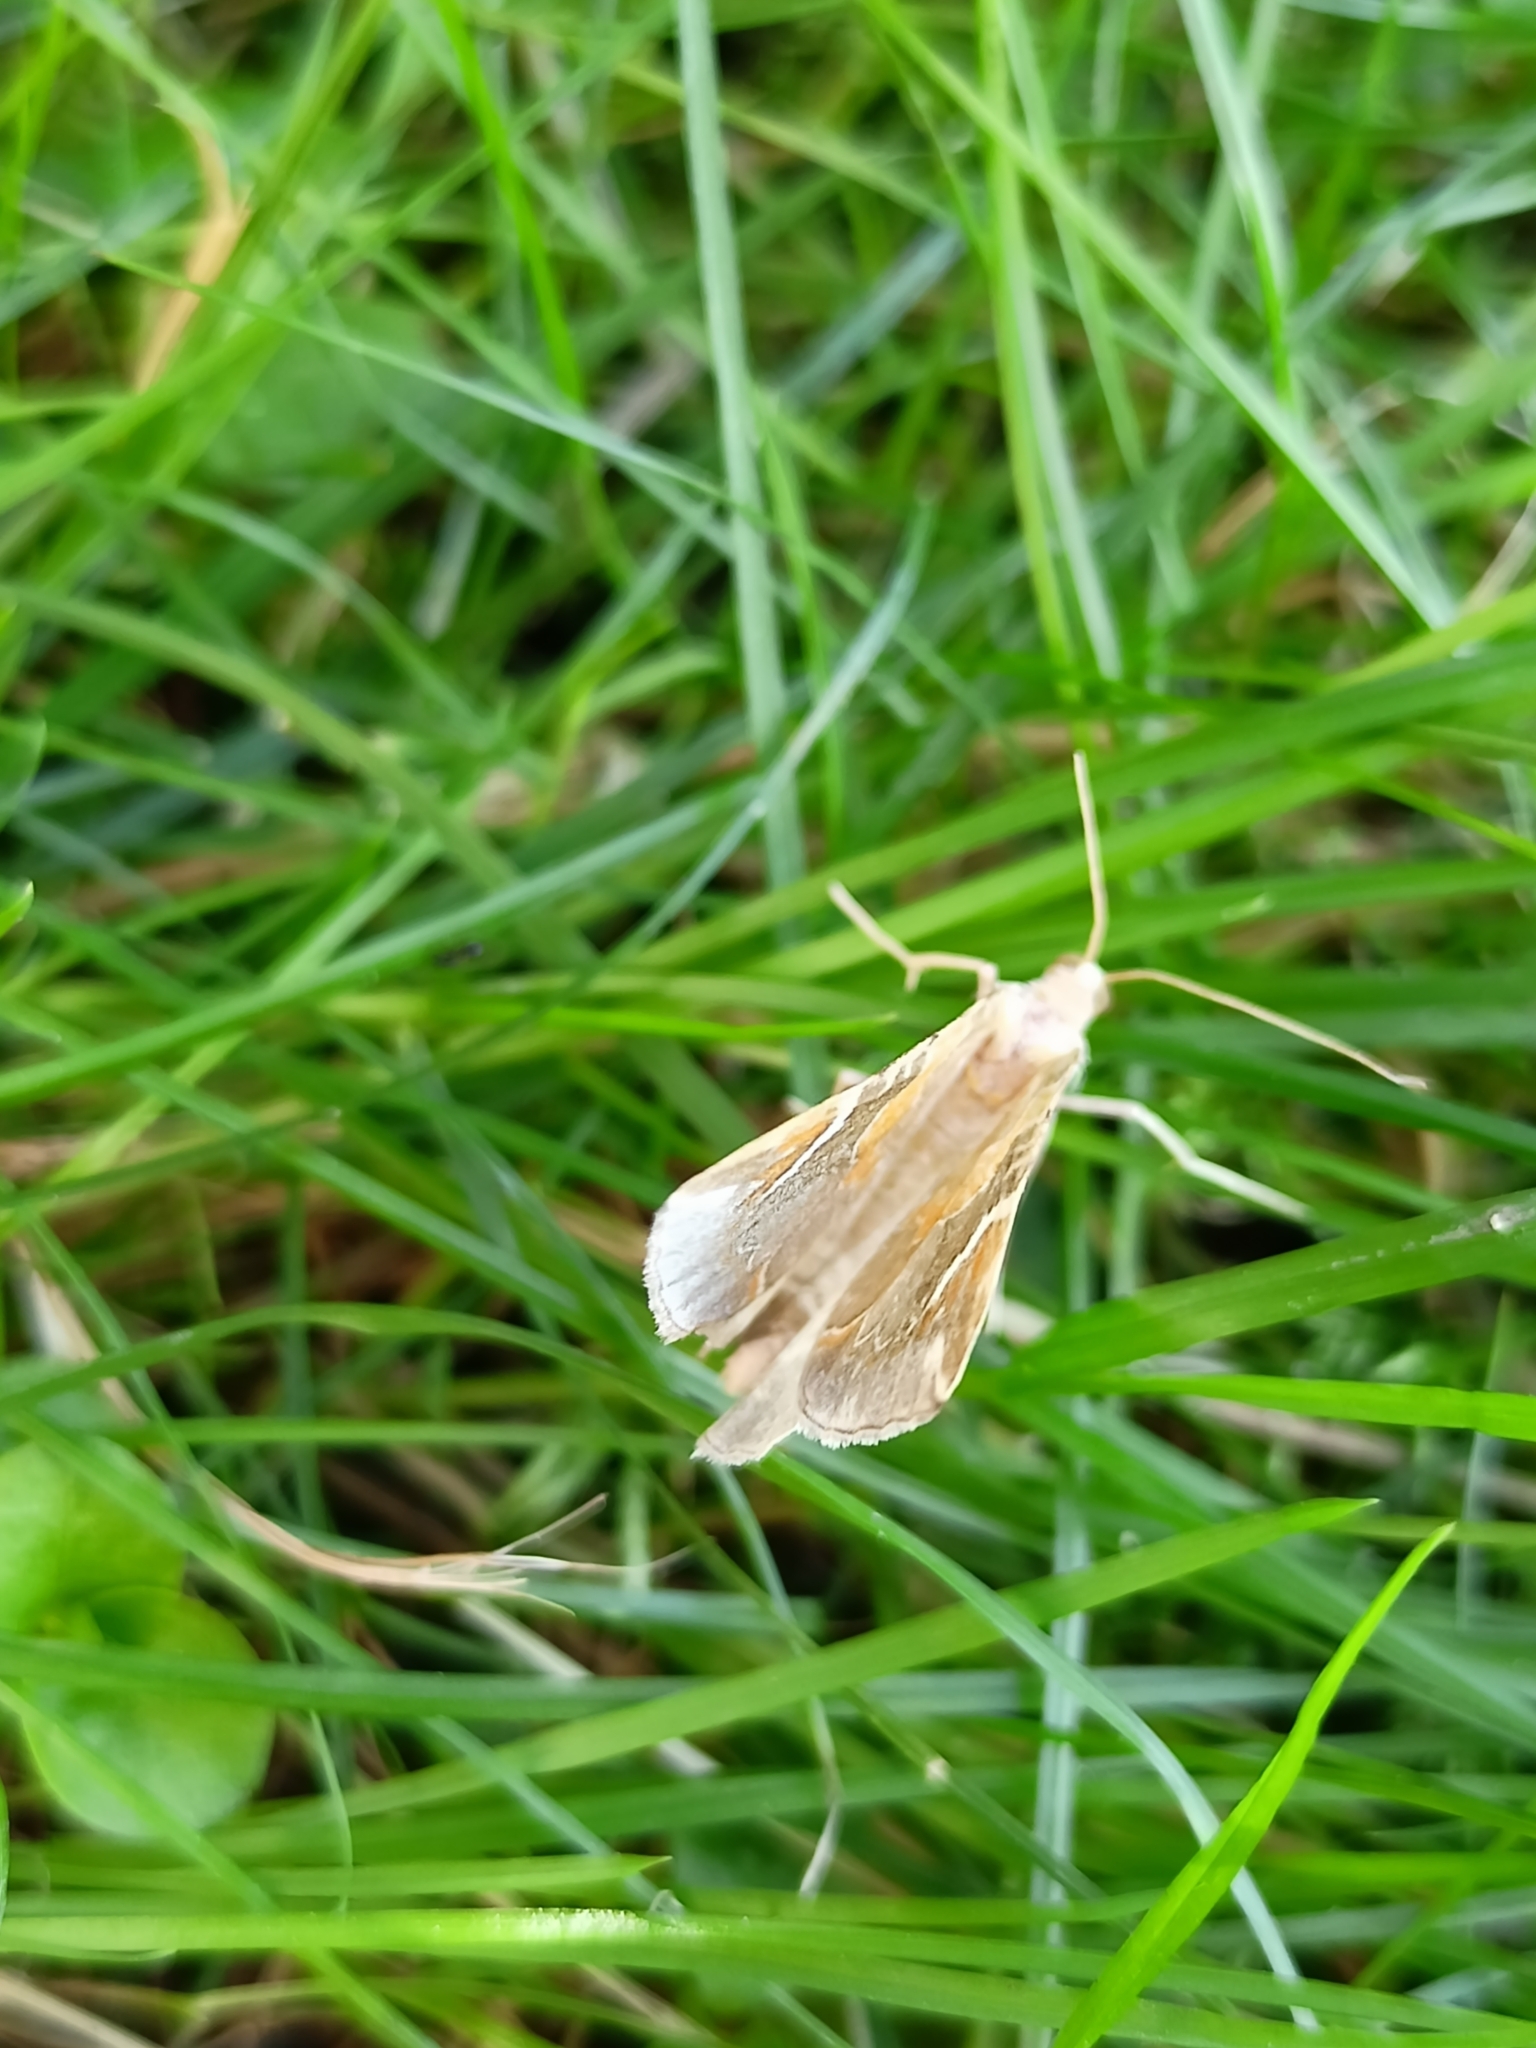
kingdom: Animalia
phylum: Arthropoda
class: Insecta
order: Lepidoptera
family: Geometridae
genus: Eulithis
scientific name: Eulithis pyropata
